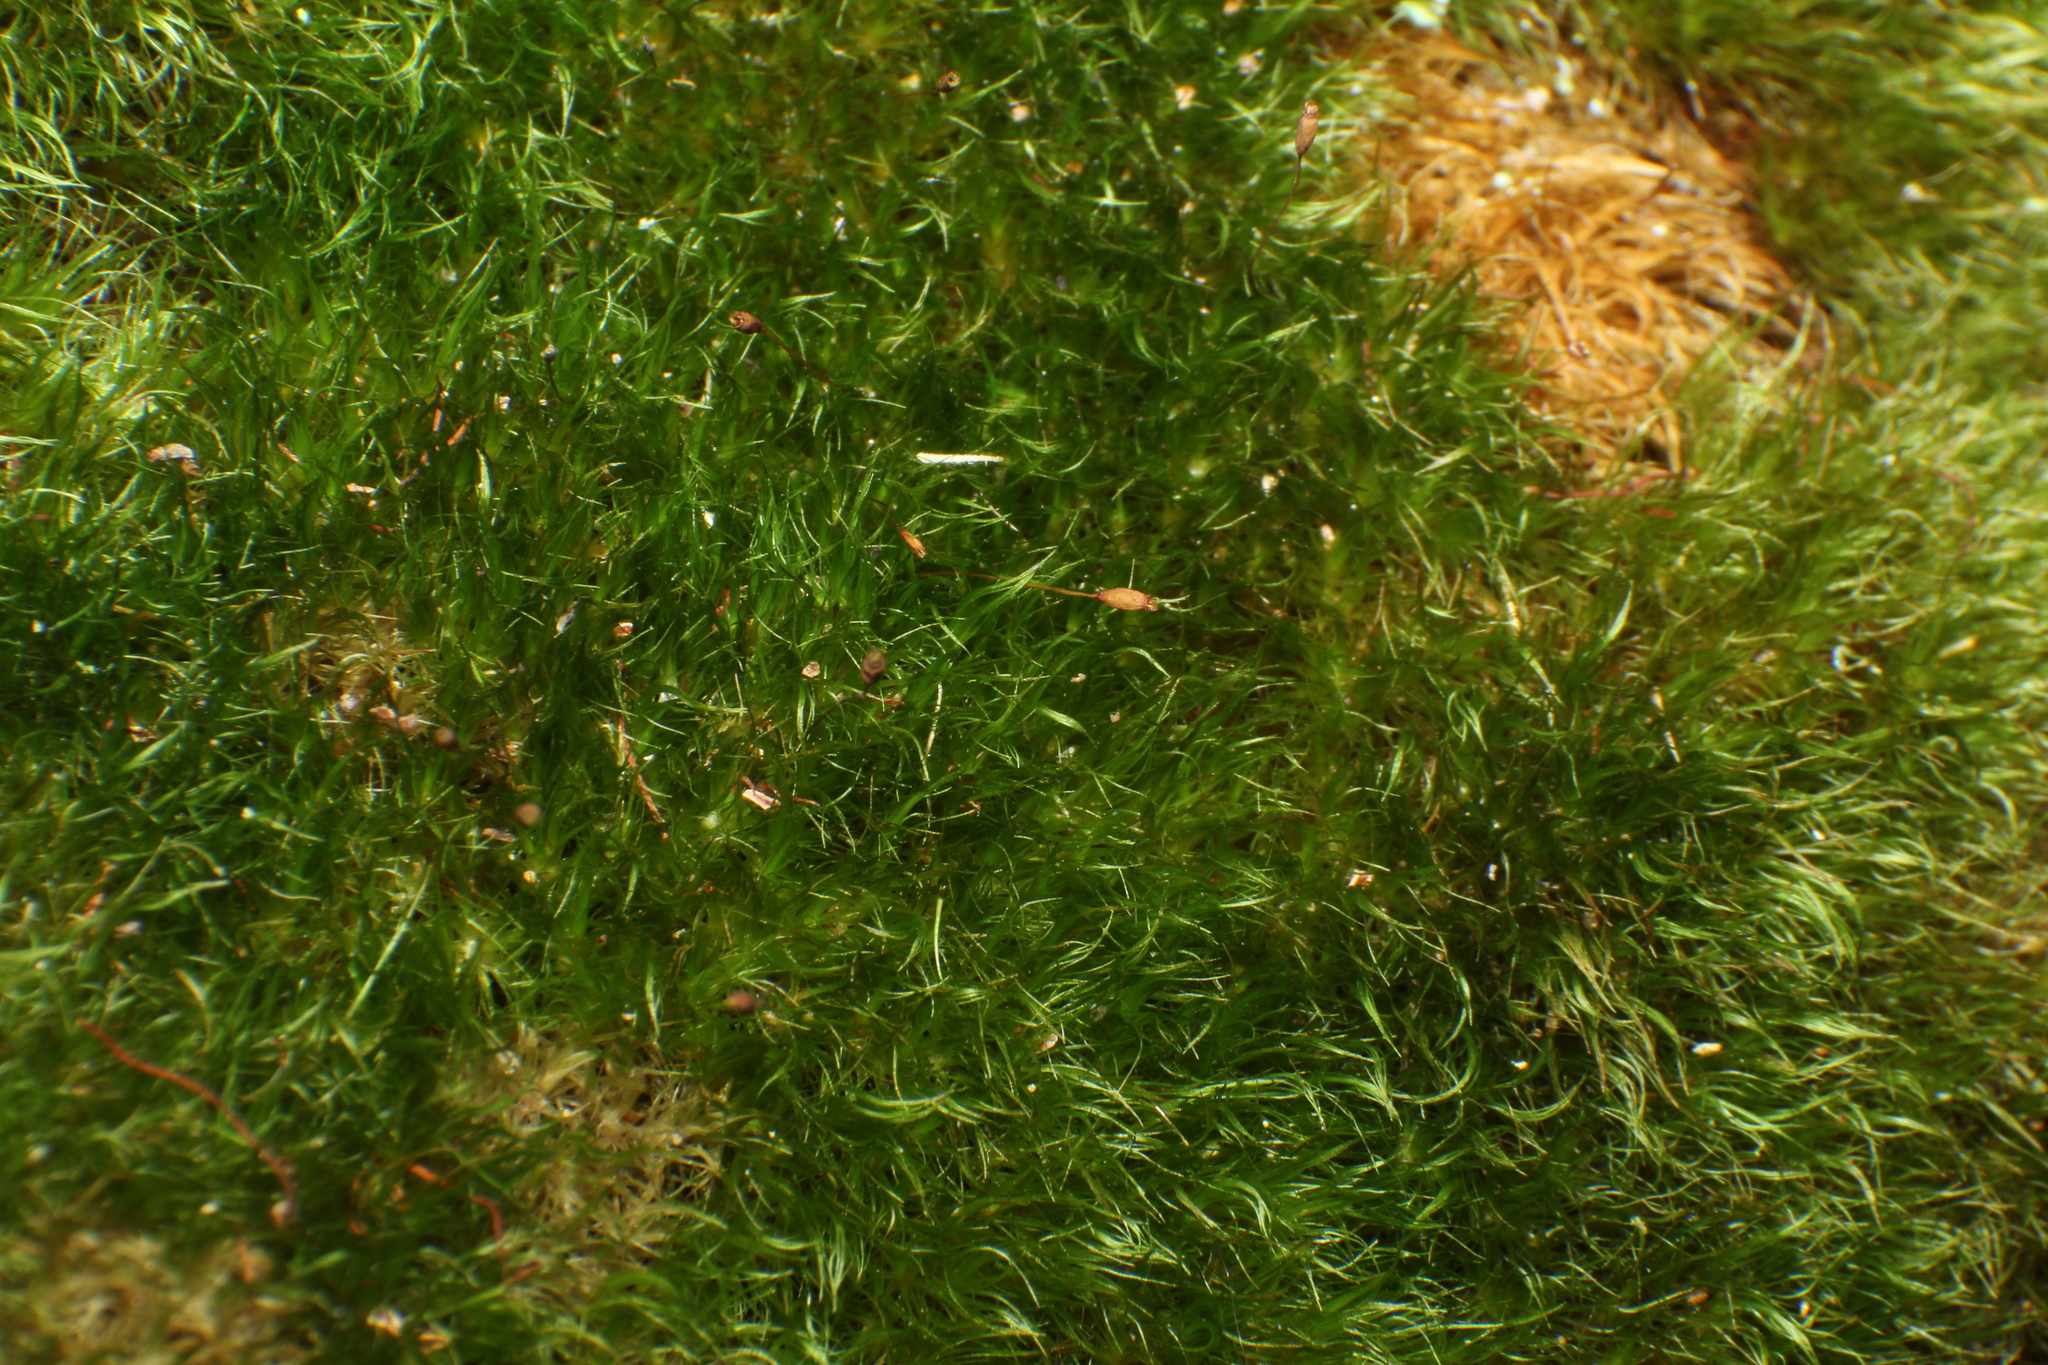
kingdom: Plantae
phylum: Bryophyta
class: Bryopsida
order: Dicranales
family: Dicranaceae
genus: Dicranoloma
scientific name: Dicranoloma diaphanoneuron
